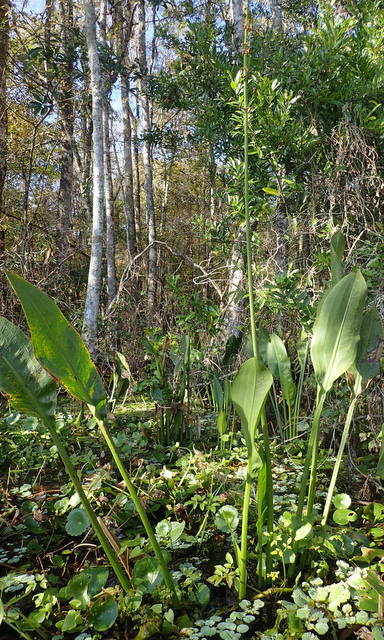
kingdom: Plantae
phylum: Tracheophyta
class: Liliopsida
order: Alismatales
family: Alismataceae
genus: Sagittaria
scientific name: Sagittaria lancifolia
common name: Lance-leaf arrowhead
